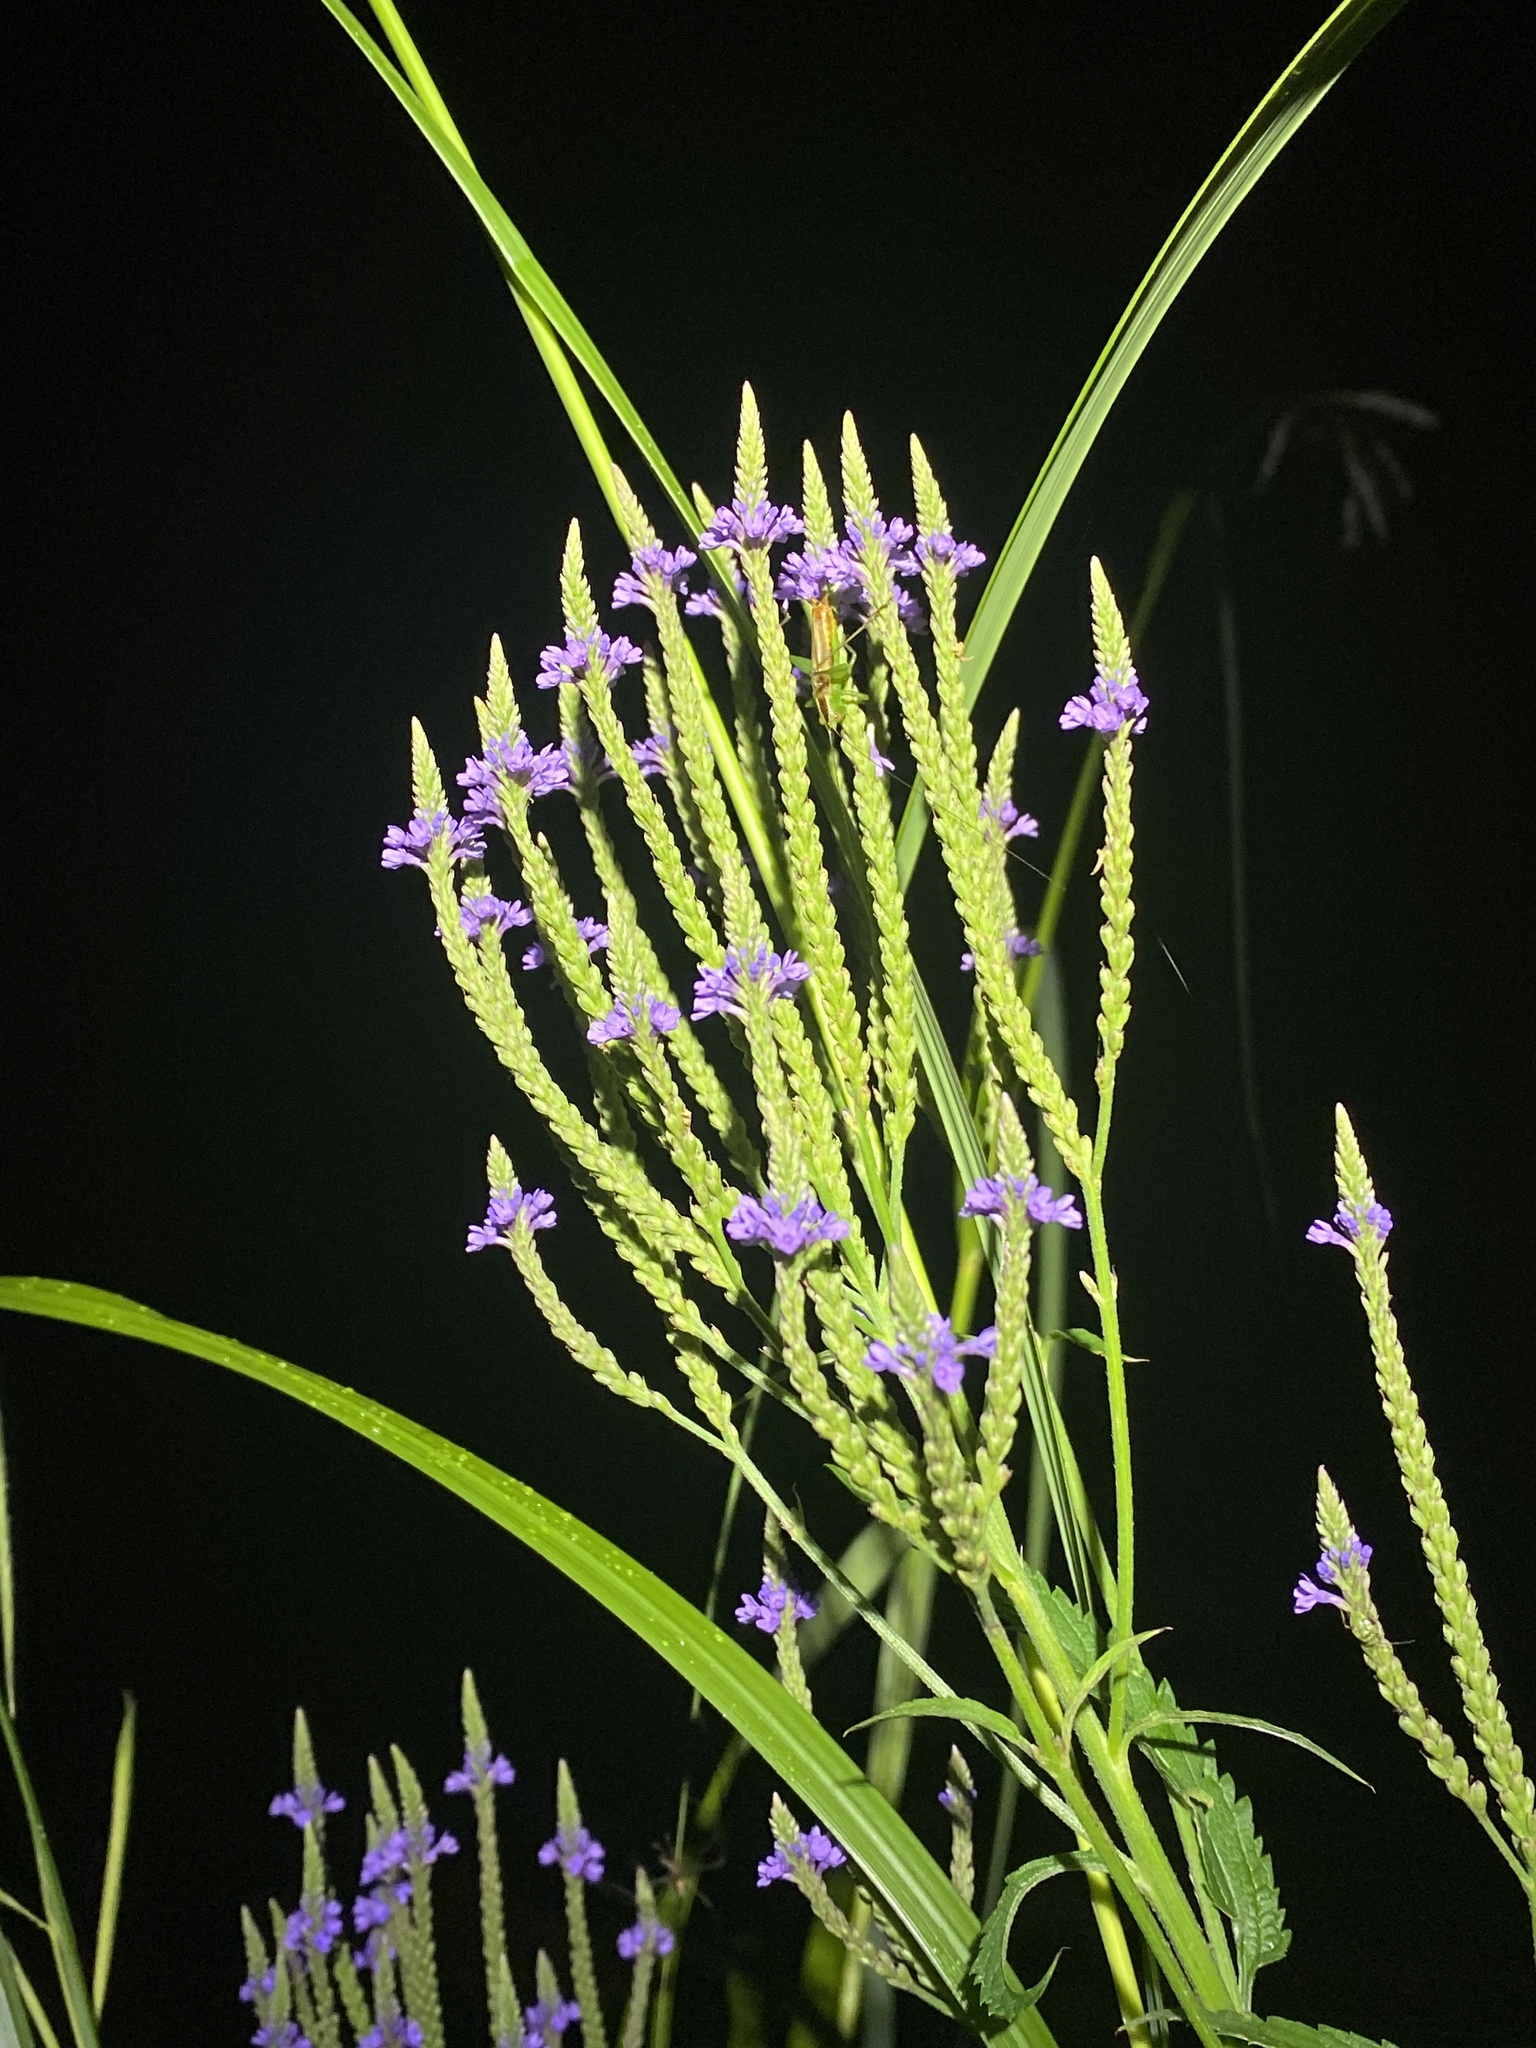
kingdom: Plantae
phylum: Tracheophyta
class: Magnoliopsida
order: Lamiales
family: Verbenaceae
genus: Verbena
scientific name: Verbena hastata
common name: American blue vervain
